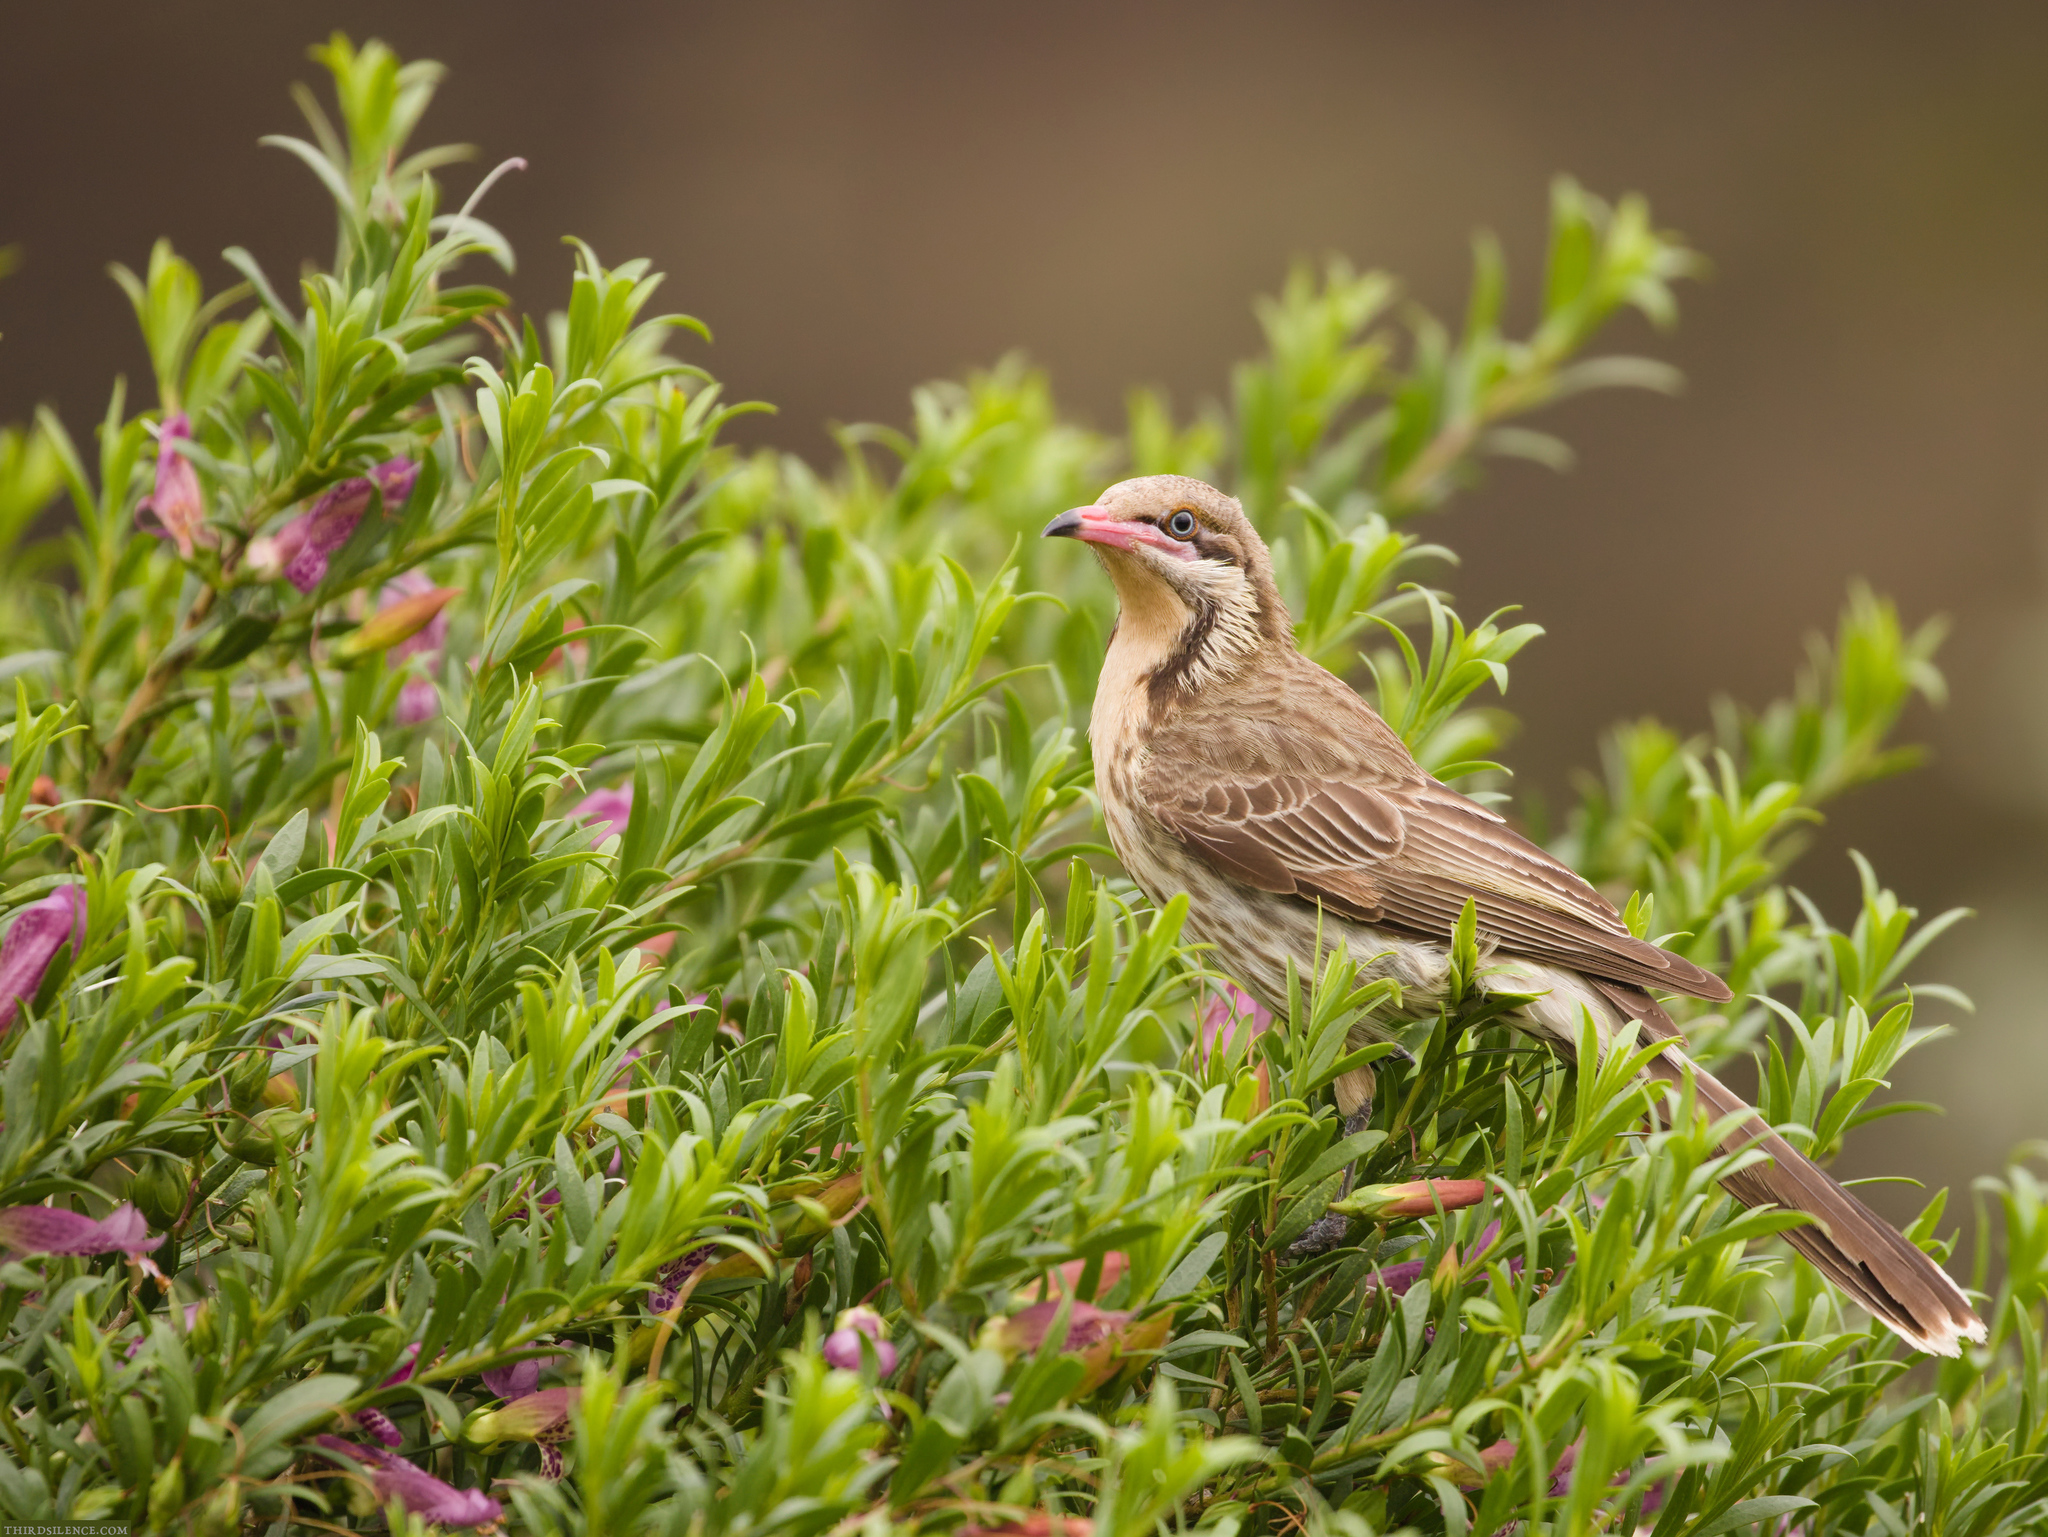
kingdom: Animalia
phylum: Chordata
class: Aves
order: Passeriformes
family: Meliphagidae
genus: Acanthagenys
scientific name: Acanthagenys rufogularis
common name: Spiny-cheeked honeyeater
